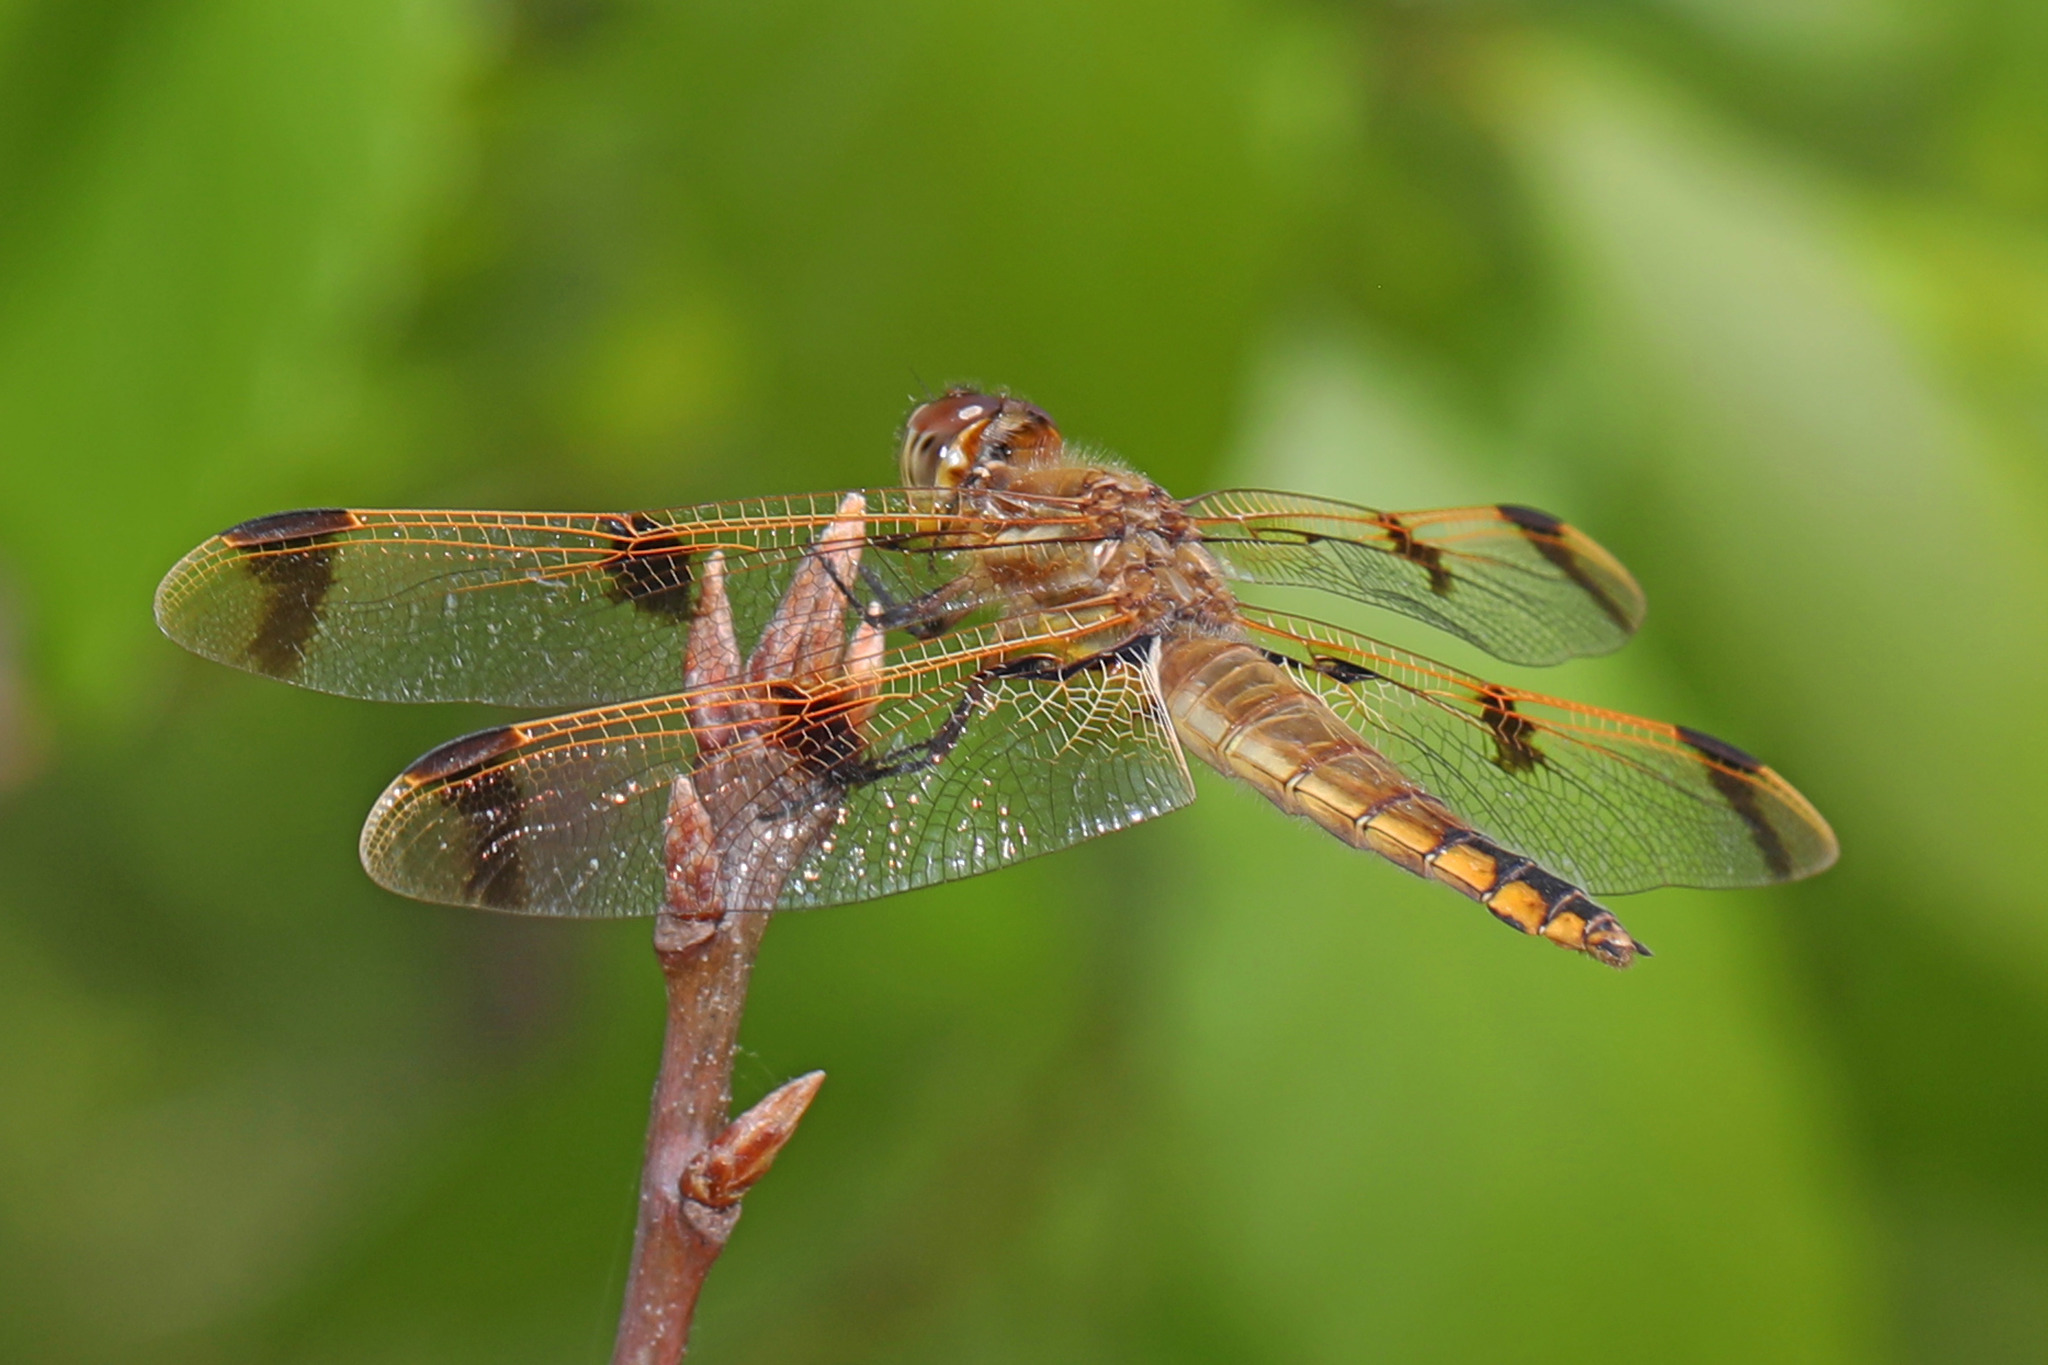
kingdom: Animalia
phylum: Arthropoda
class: Insecta
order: Odonata
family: Libellulidae
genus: Libellula
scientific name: Libellula semifasciata
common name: Painted skimmer
